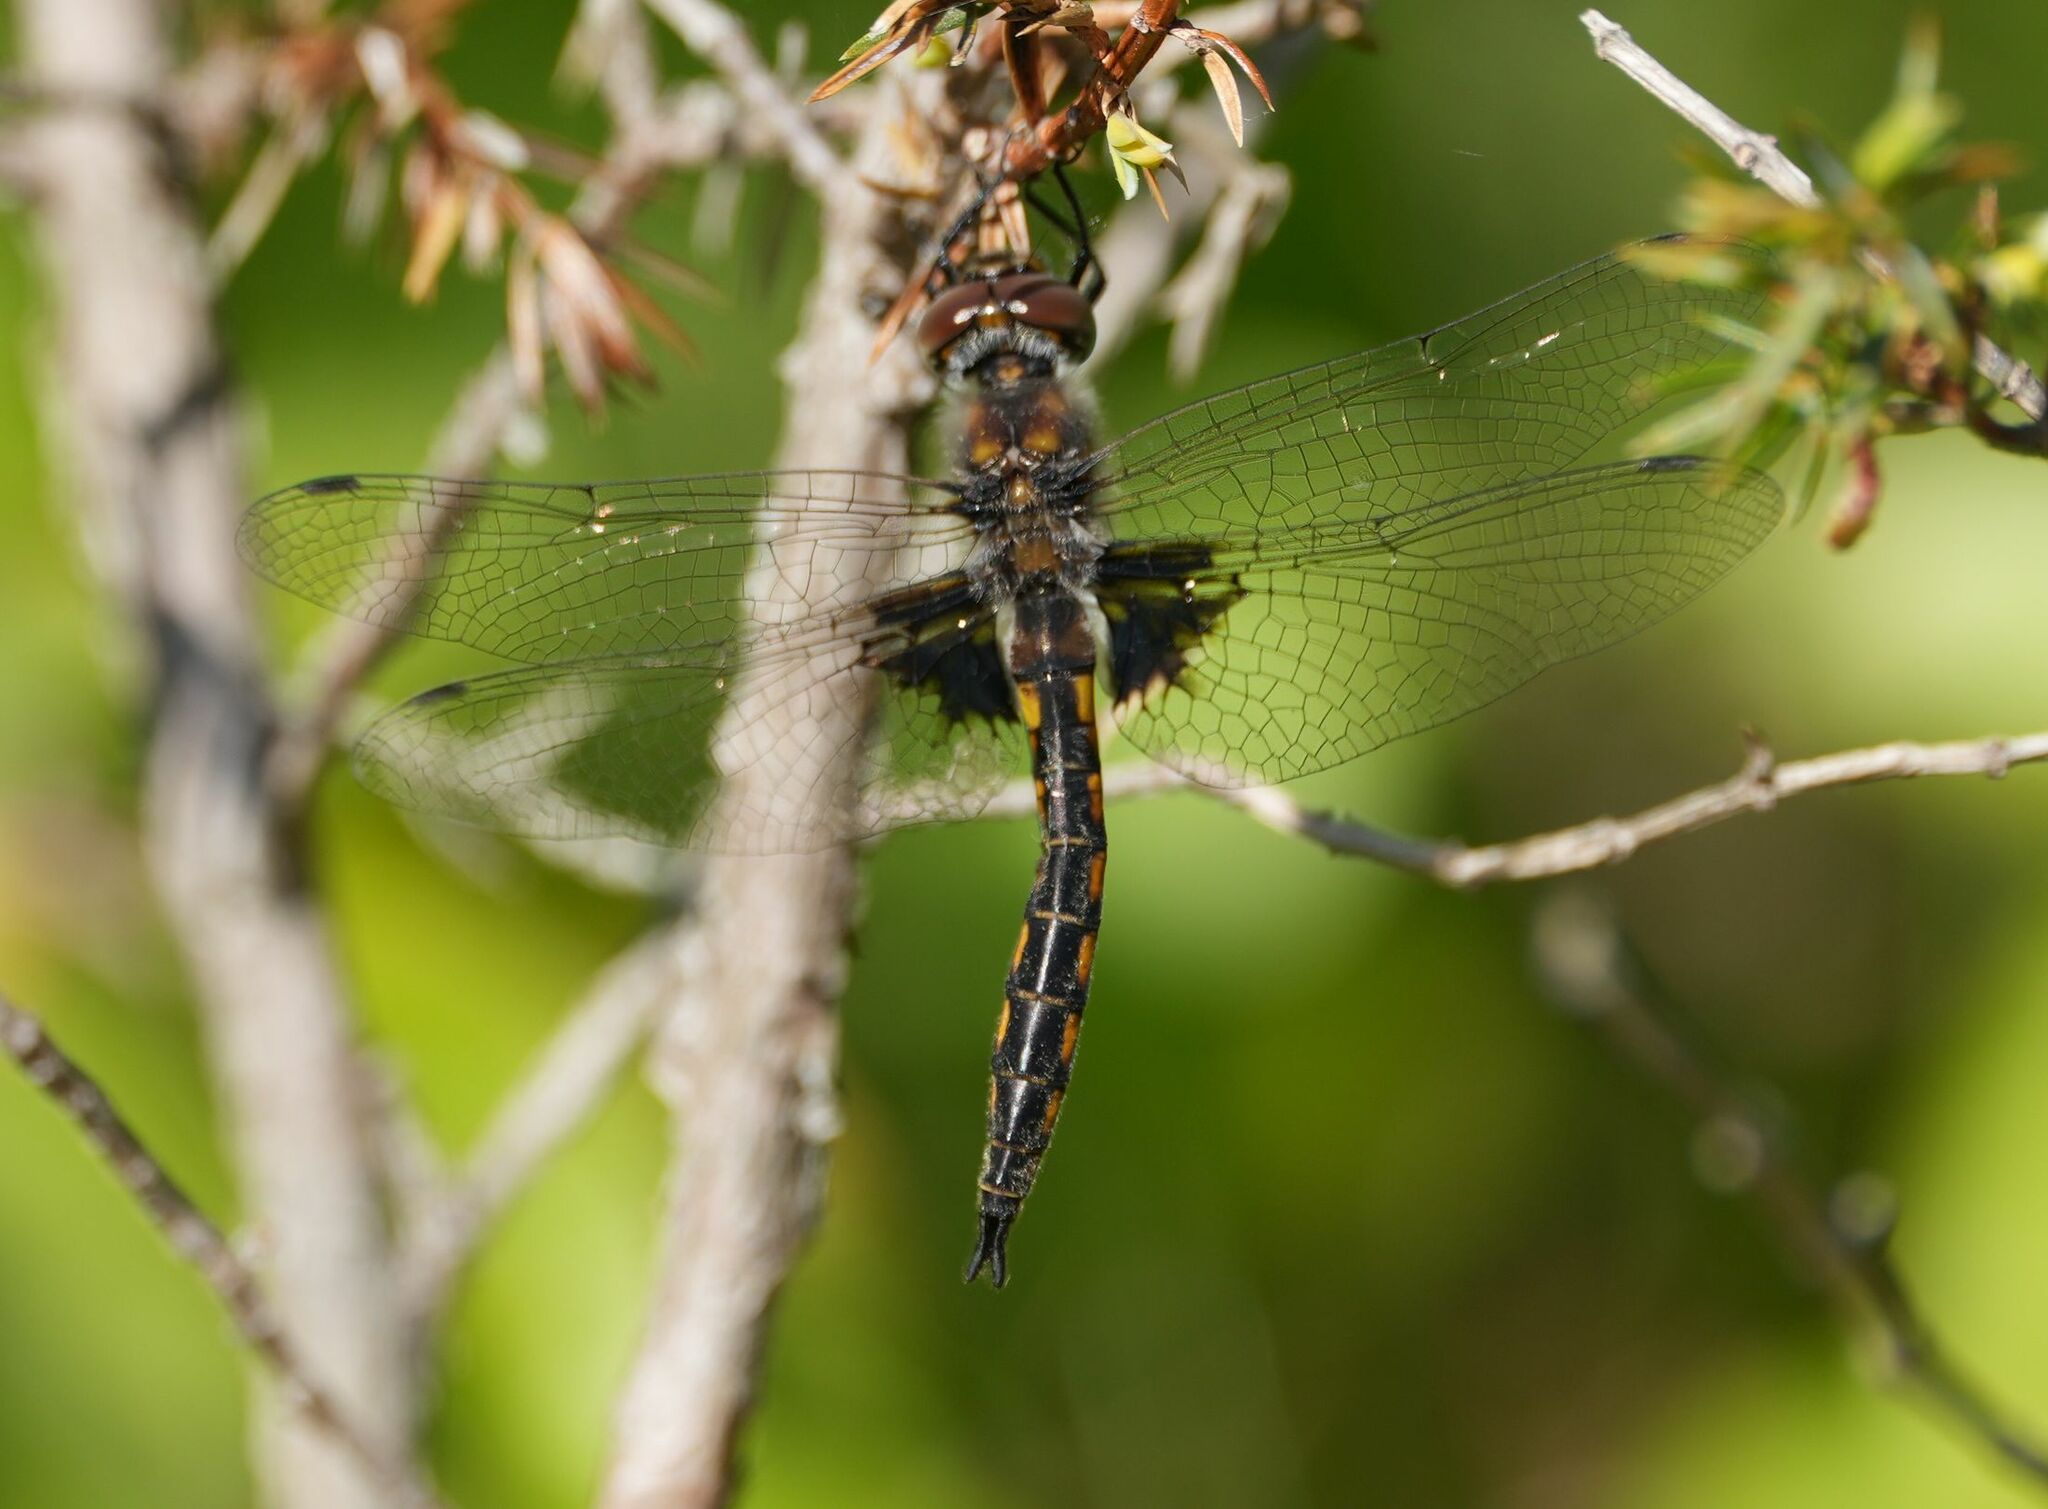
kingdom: Animalia
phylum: Arthropoda
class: Insecta
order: Odonata
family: Corduliidae
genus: Epitheca
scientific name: Epitheca cynosura
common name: Common baskettail
